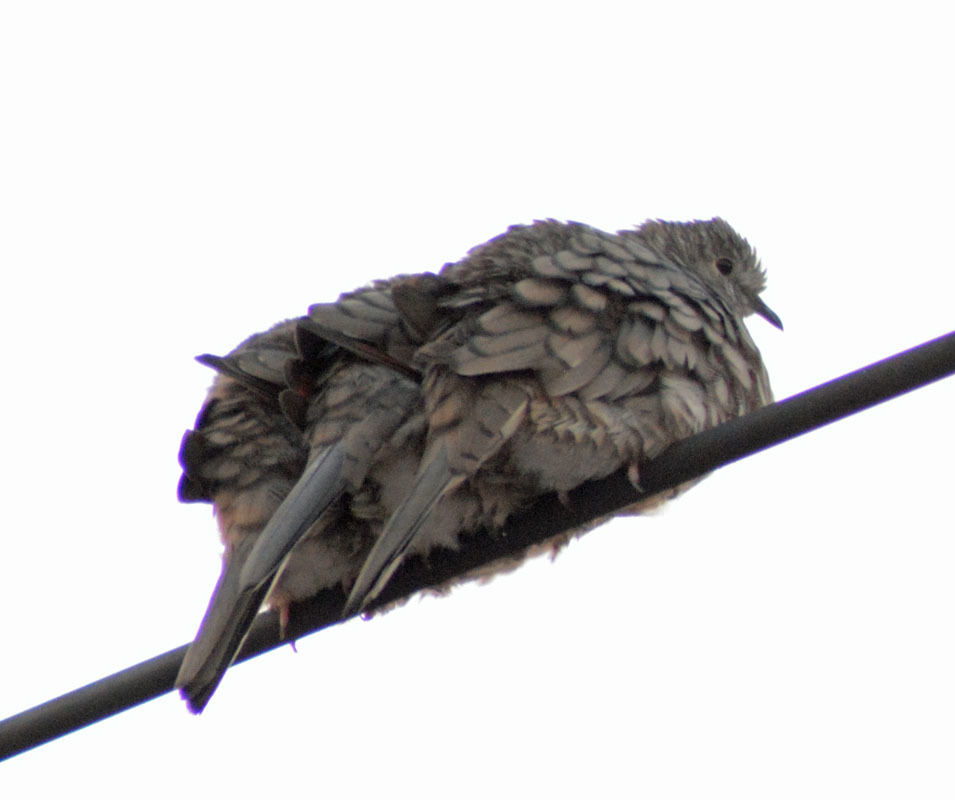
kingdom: Animalia
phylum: Chordata
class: Aves
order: Columbiformes
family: Columbidae
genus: Columbina
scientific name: Columbina inca
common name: Inca dove
